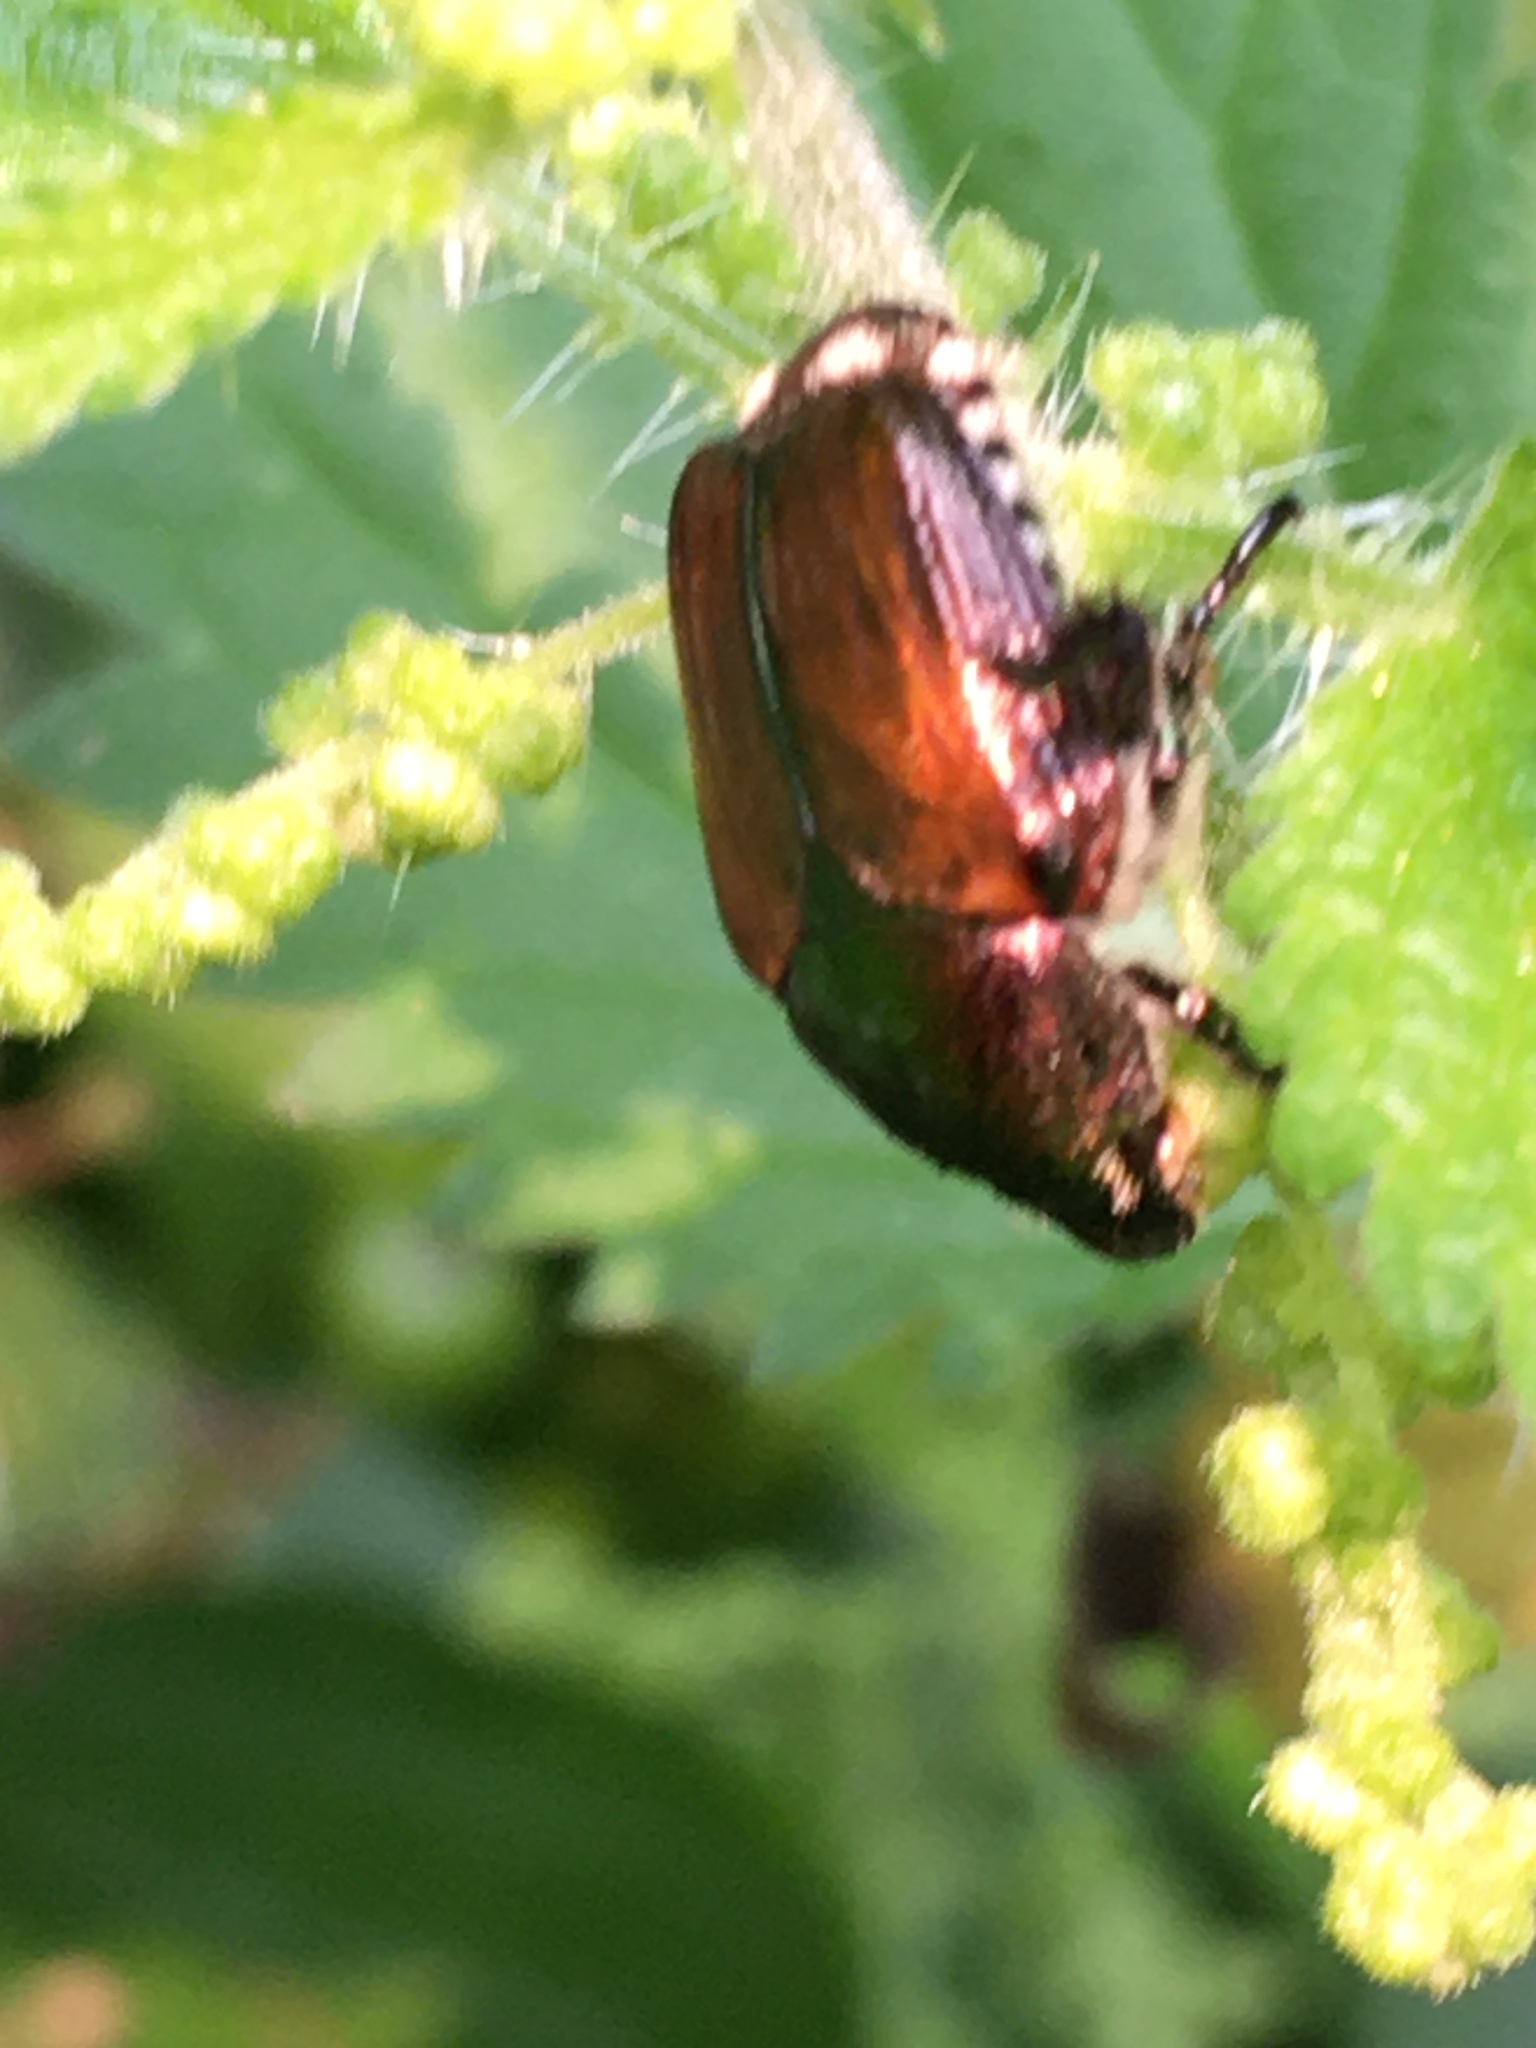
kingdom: Animalia
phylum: Arthropoda
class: Insecta
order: Coleoptera
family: Scarabaeidae
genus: Popillia
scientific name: Popillia japonica
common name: Japanese beetle
